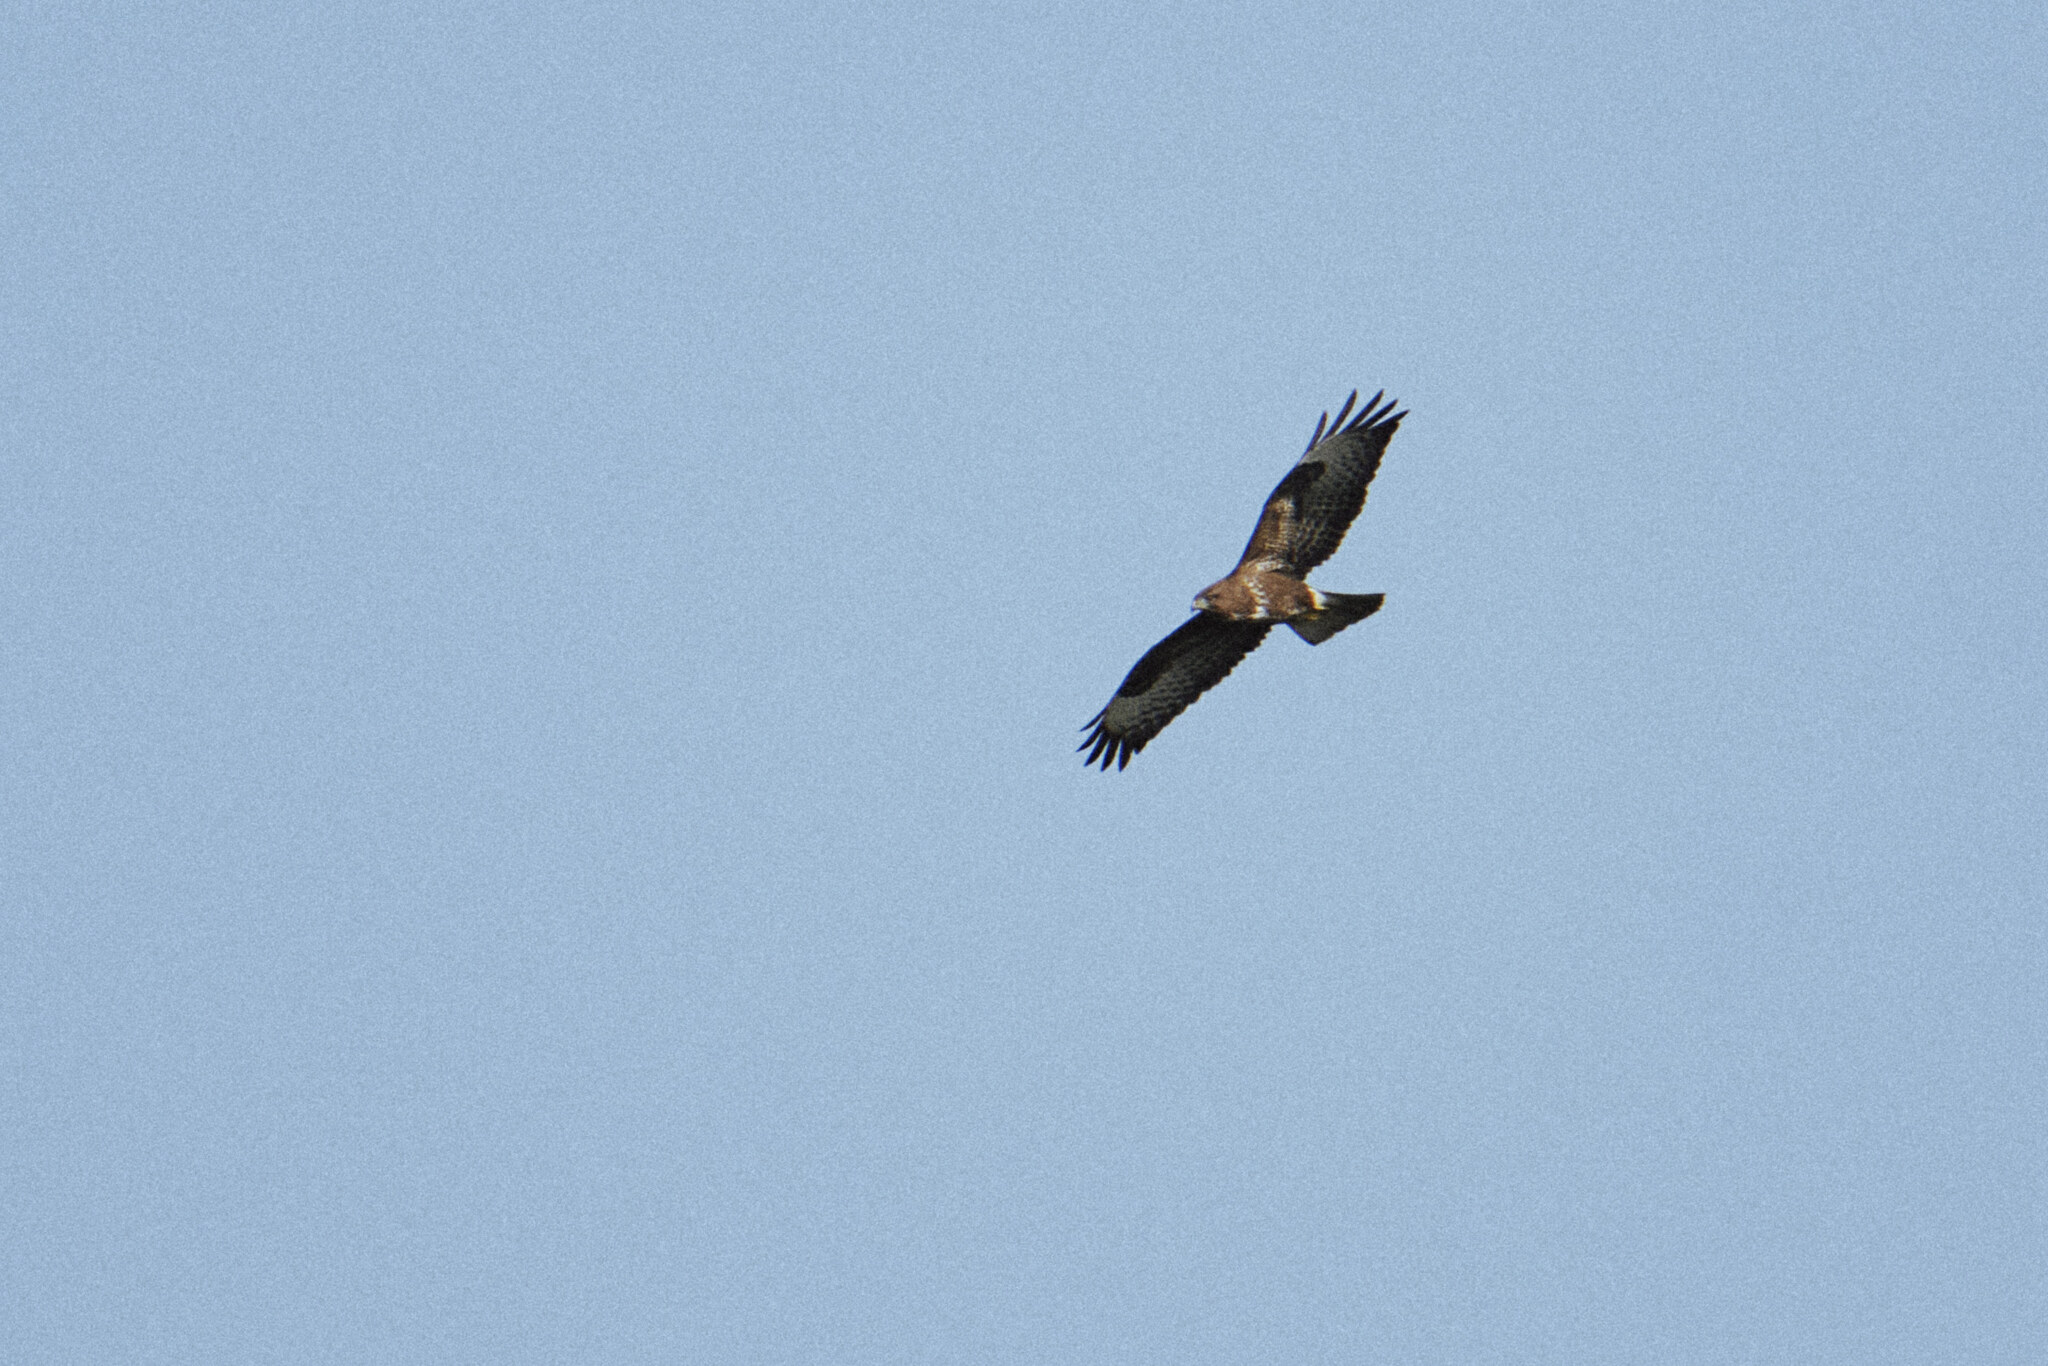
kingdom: Animalia
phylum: Chordata
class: Aves
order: Accipitriformes
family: Accipitridae
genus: Buteo
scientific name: Buteo buteo
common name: Common buzzard
